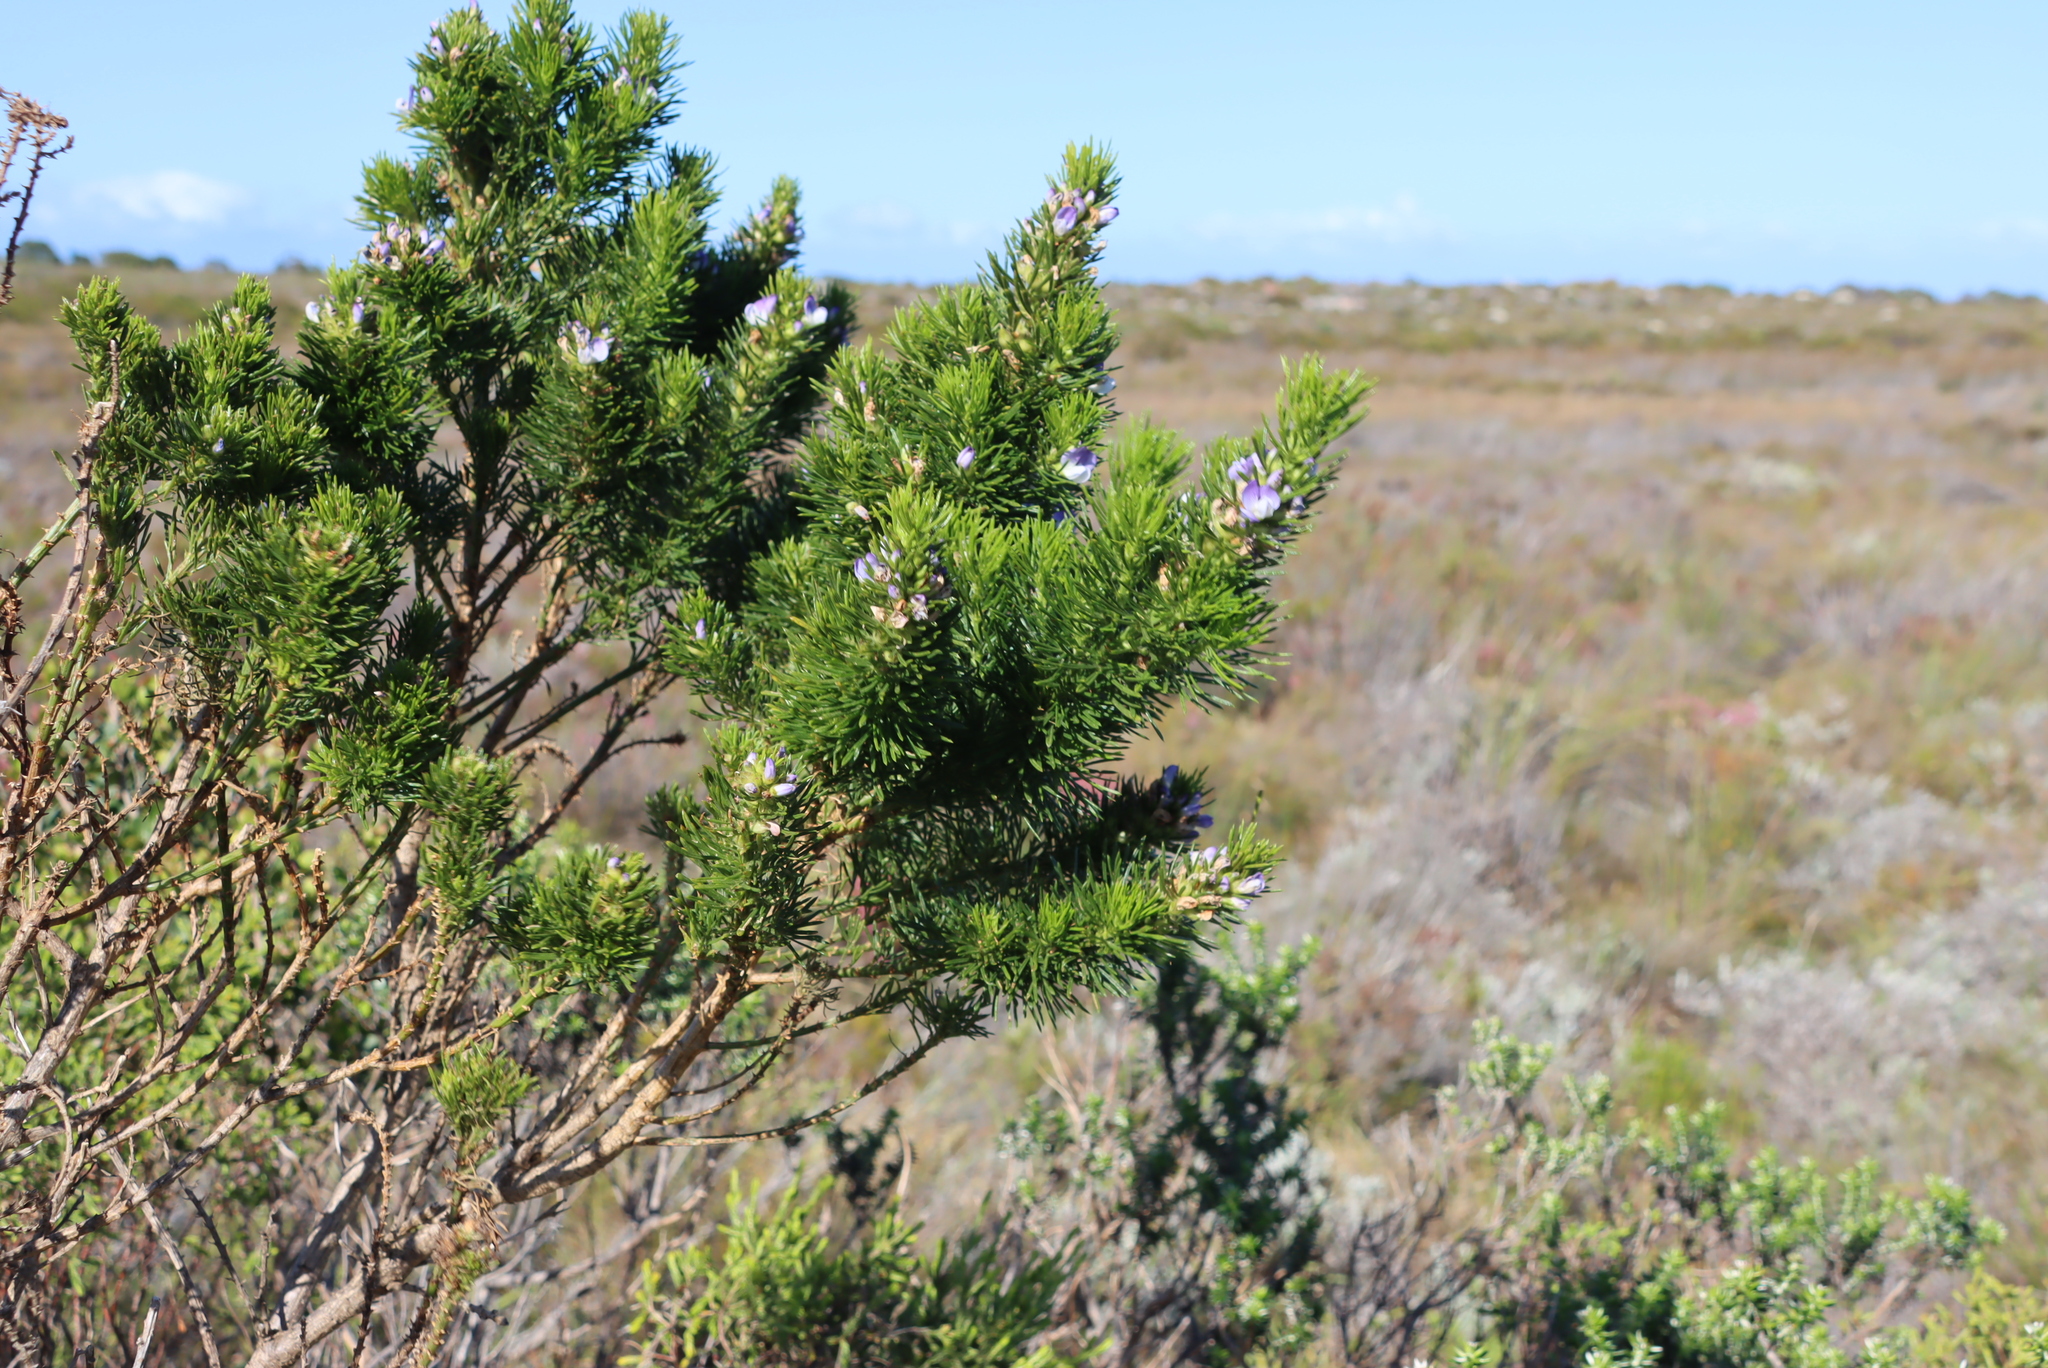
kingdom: Plantae
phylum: Tracheophyta
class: Magnoliopsida
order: Fabales
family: Fabaceae
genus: Psoralea
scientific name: Psoralea pinnata
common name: African scurfpea
